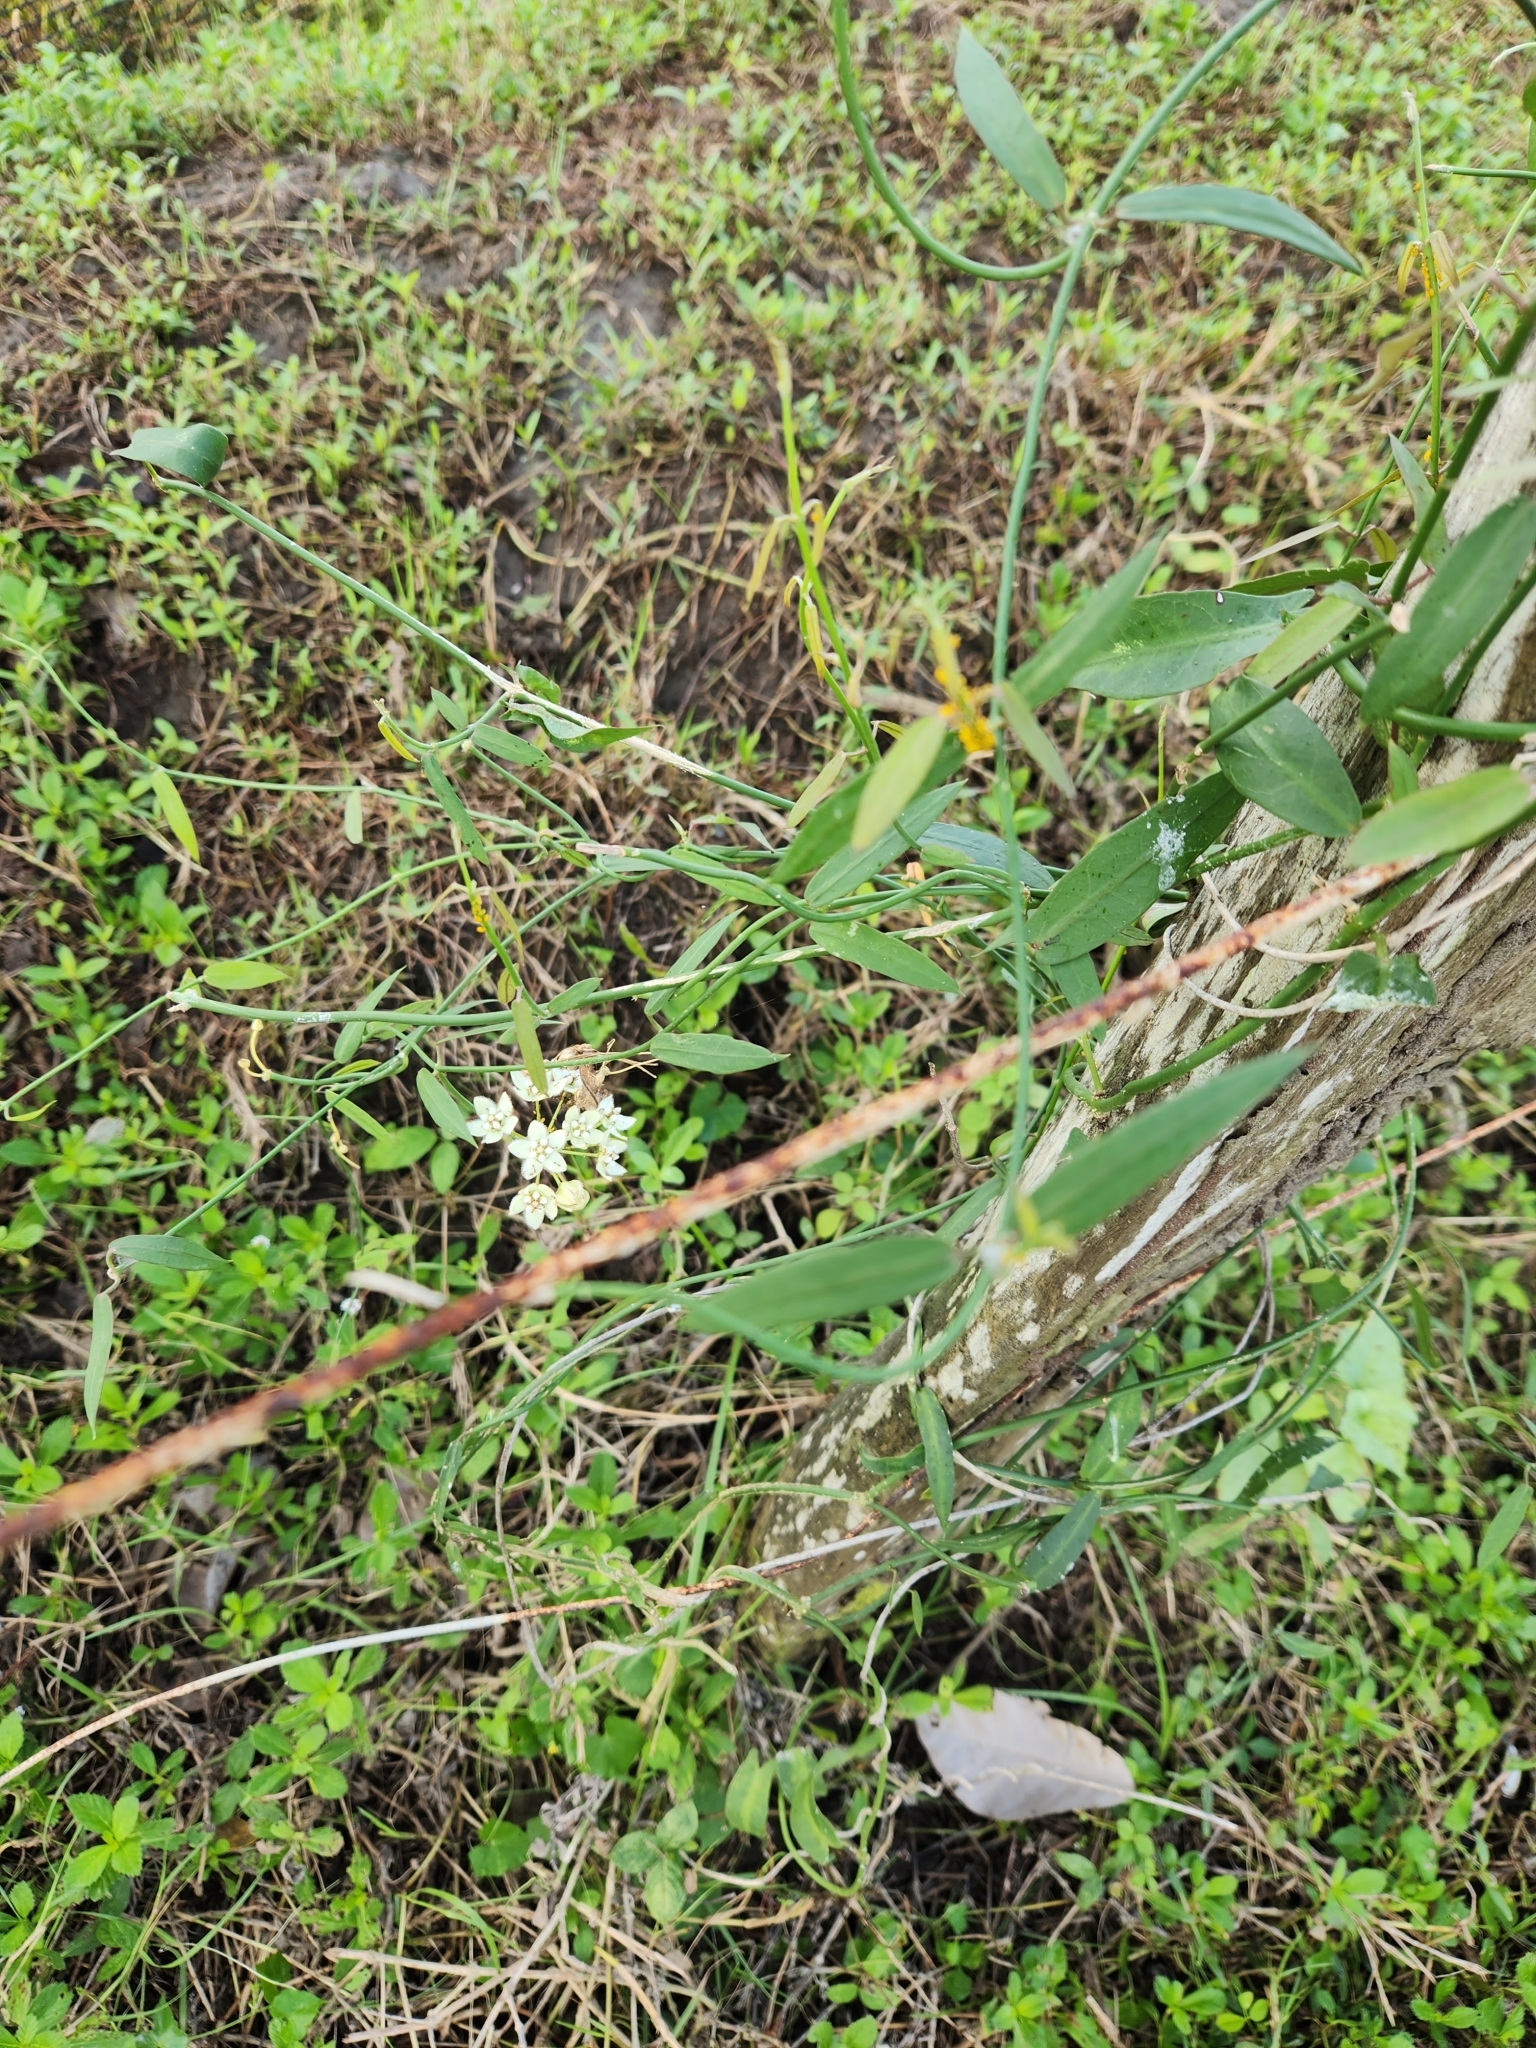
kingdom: Plantae
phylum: Tracheophyta
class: Magnoliopsida
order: Gentianales
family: Apocynaceae
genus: Funastrum
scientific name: Funastrum clausum
